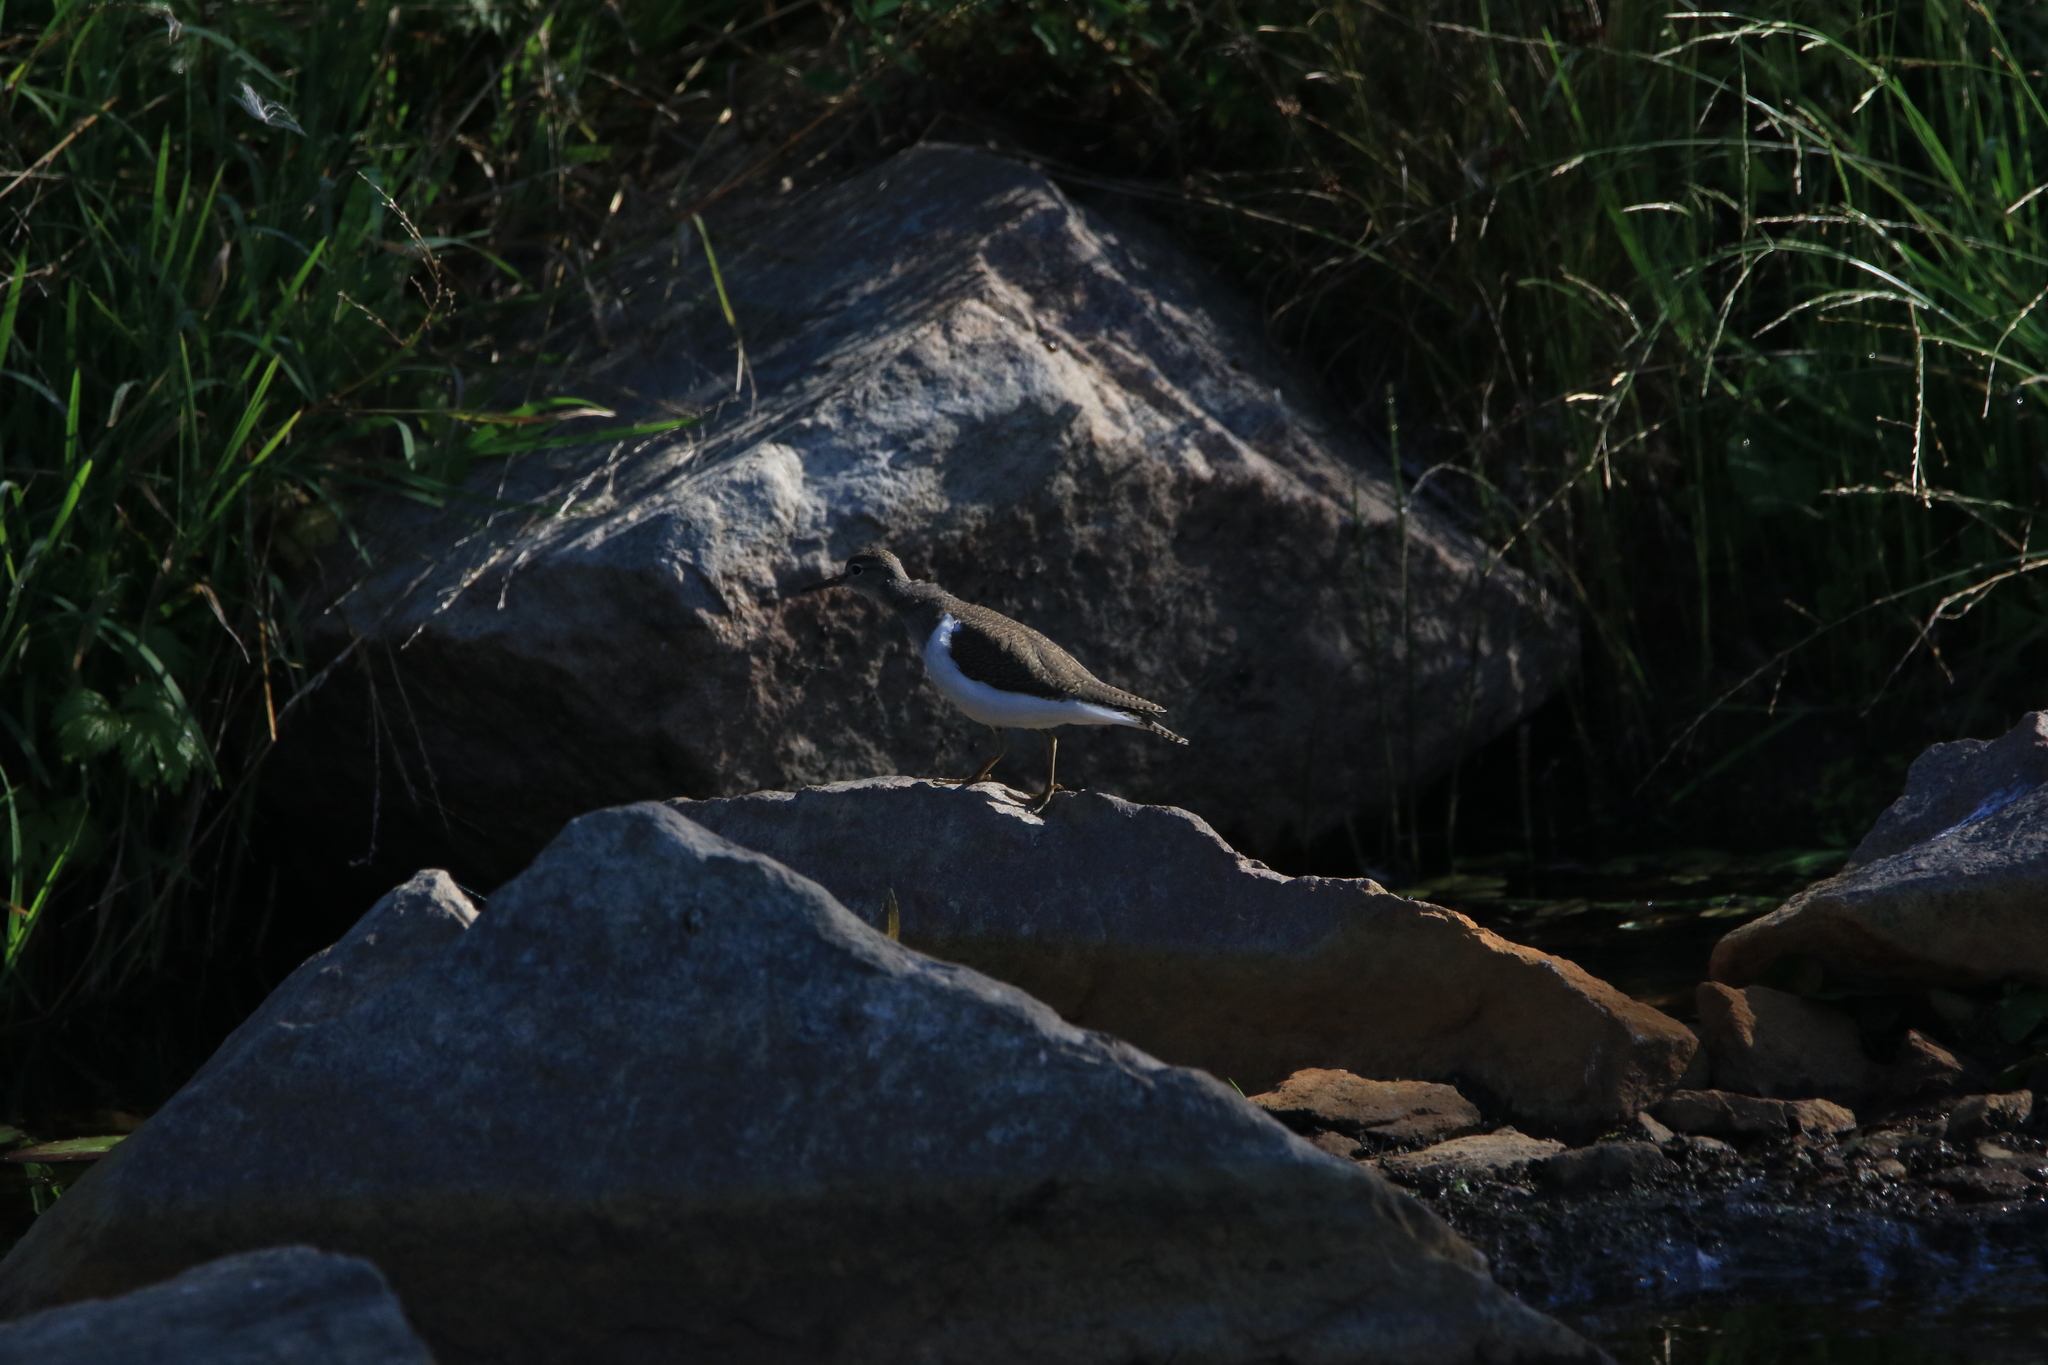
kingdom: Animalia
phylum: Chordata
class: Aves
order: Charadriiformes
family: Scolopacidae
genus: Actitis
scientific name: Actitis hypoleucos
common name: Common sandpiper
